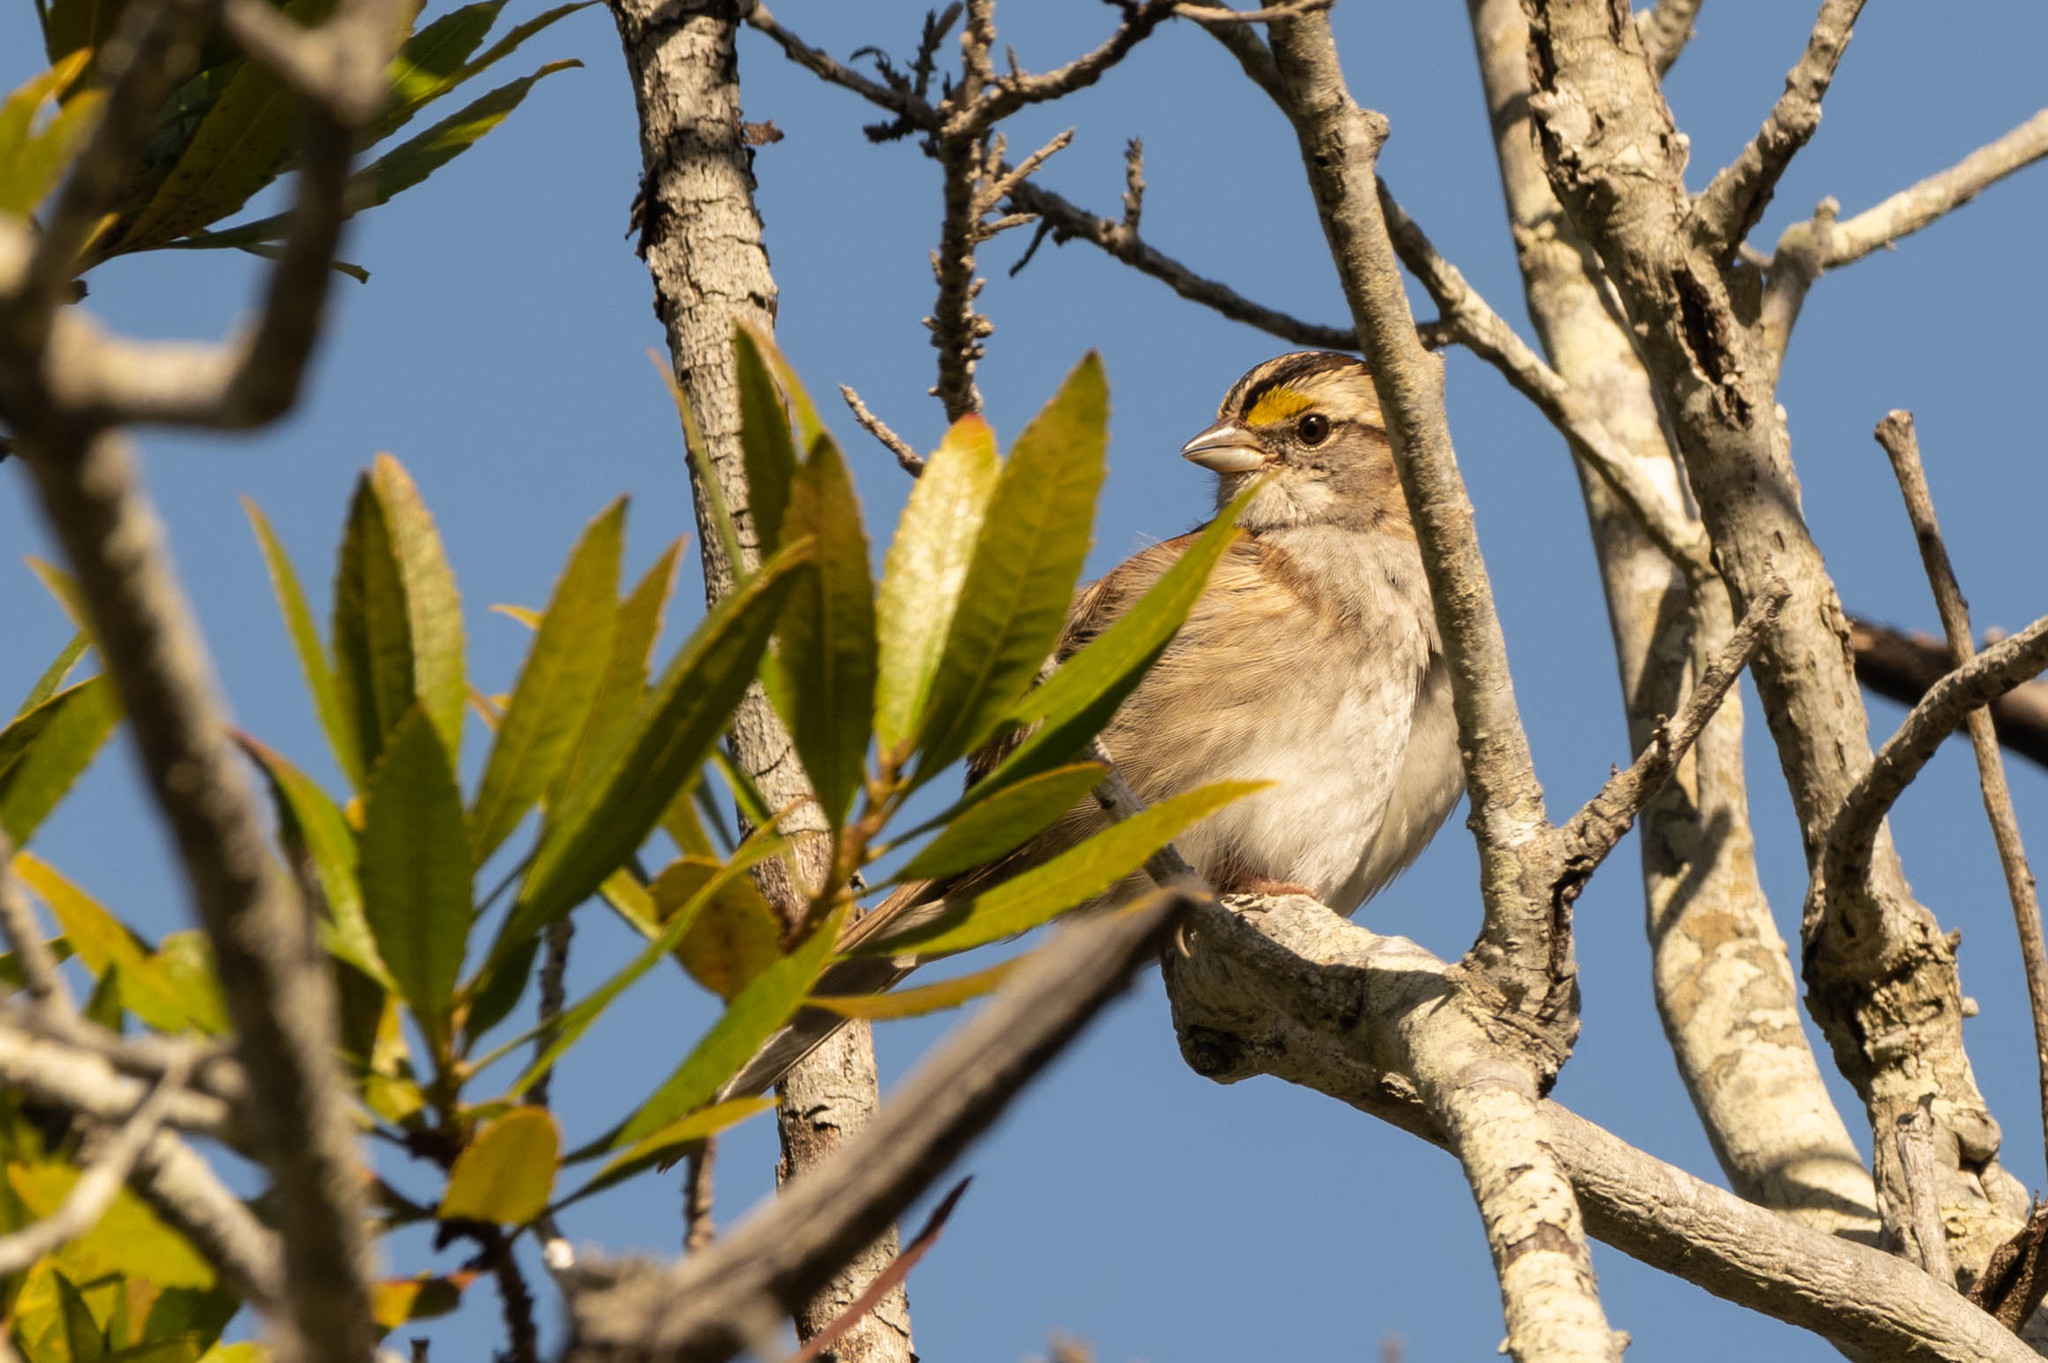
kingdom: Animalia
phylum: Chordata
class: Aves
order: Passeriformes
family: Passerellidae
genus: Zonotrichia
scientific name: Zonotrichia albicollis
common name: White-throated sparrow
